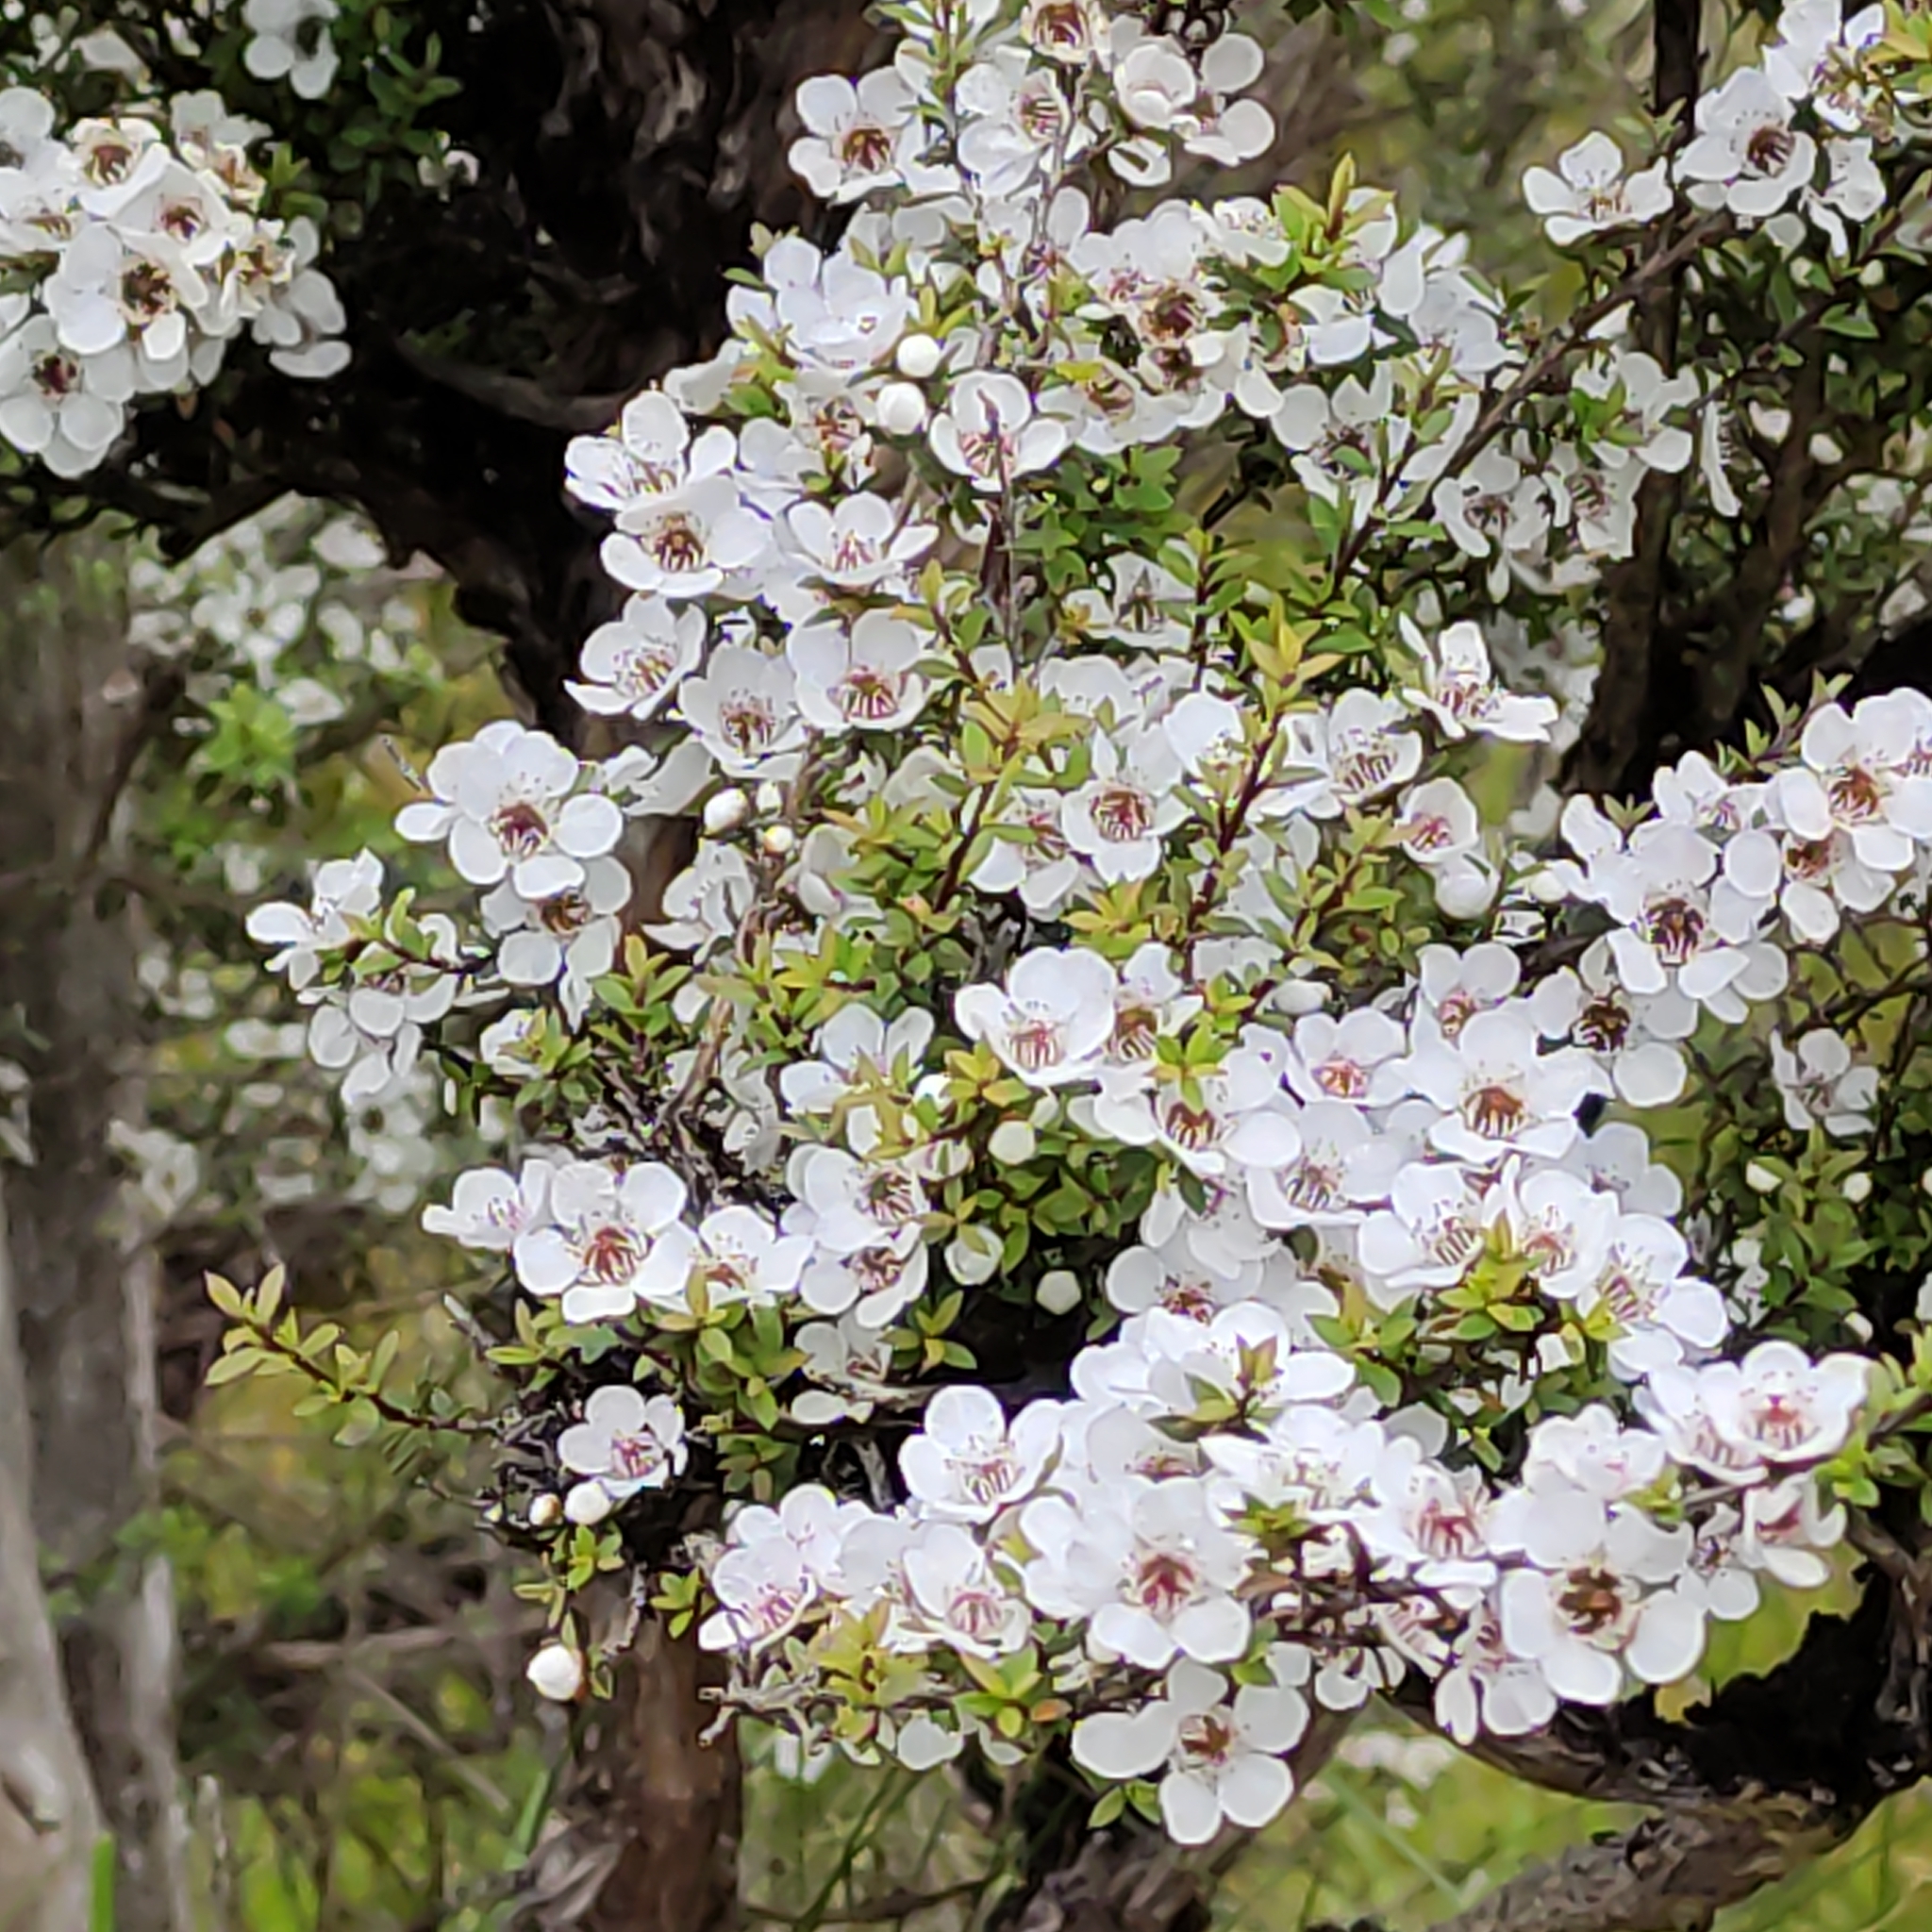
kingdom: Plantae
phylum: Tracheophyta
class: Magnoliopsida
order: Myrtales
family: Myrtaceae
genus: Leptospermum
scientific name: Leptospermum scoparium
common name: Broom tea-tree
